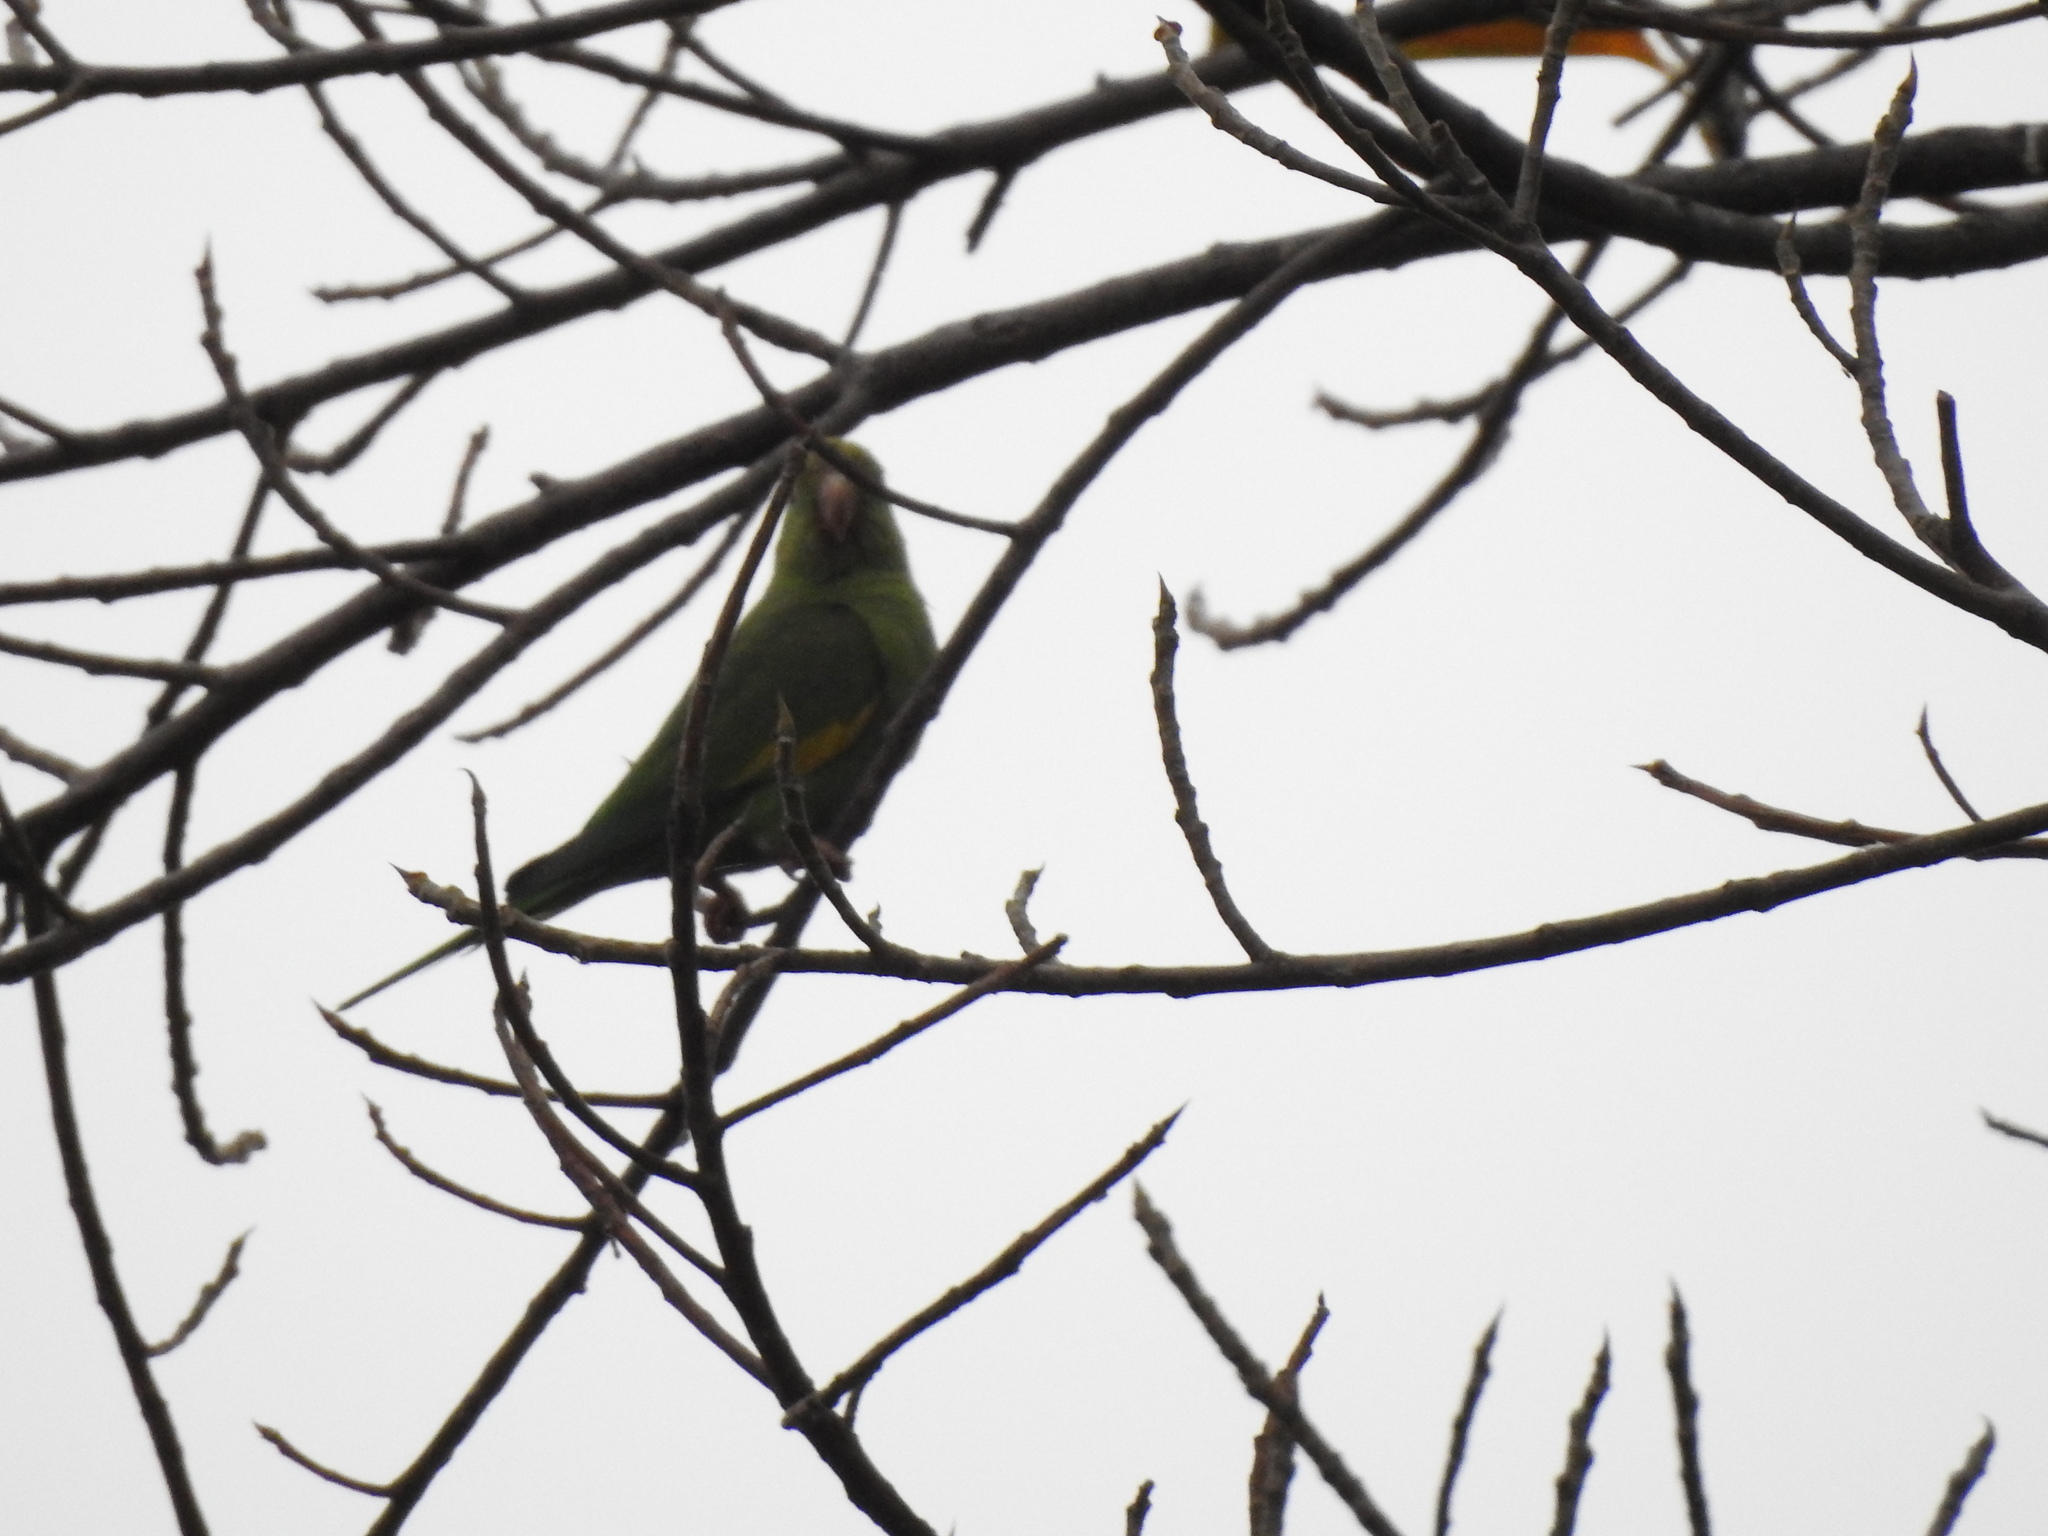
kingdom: Animalia
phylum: Chordata
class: Aves
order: Psittaciformes
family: Psittacidae
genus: Brotogeris
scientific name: Brotogeris chiriri
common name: Yellow-chevroned parakeet
